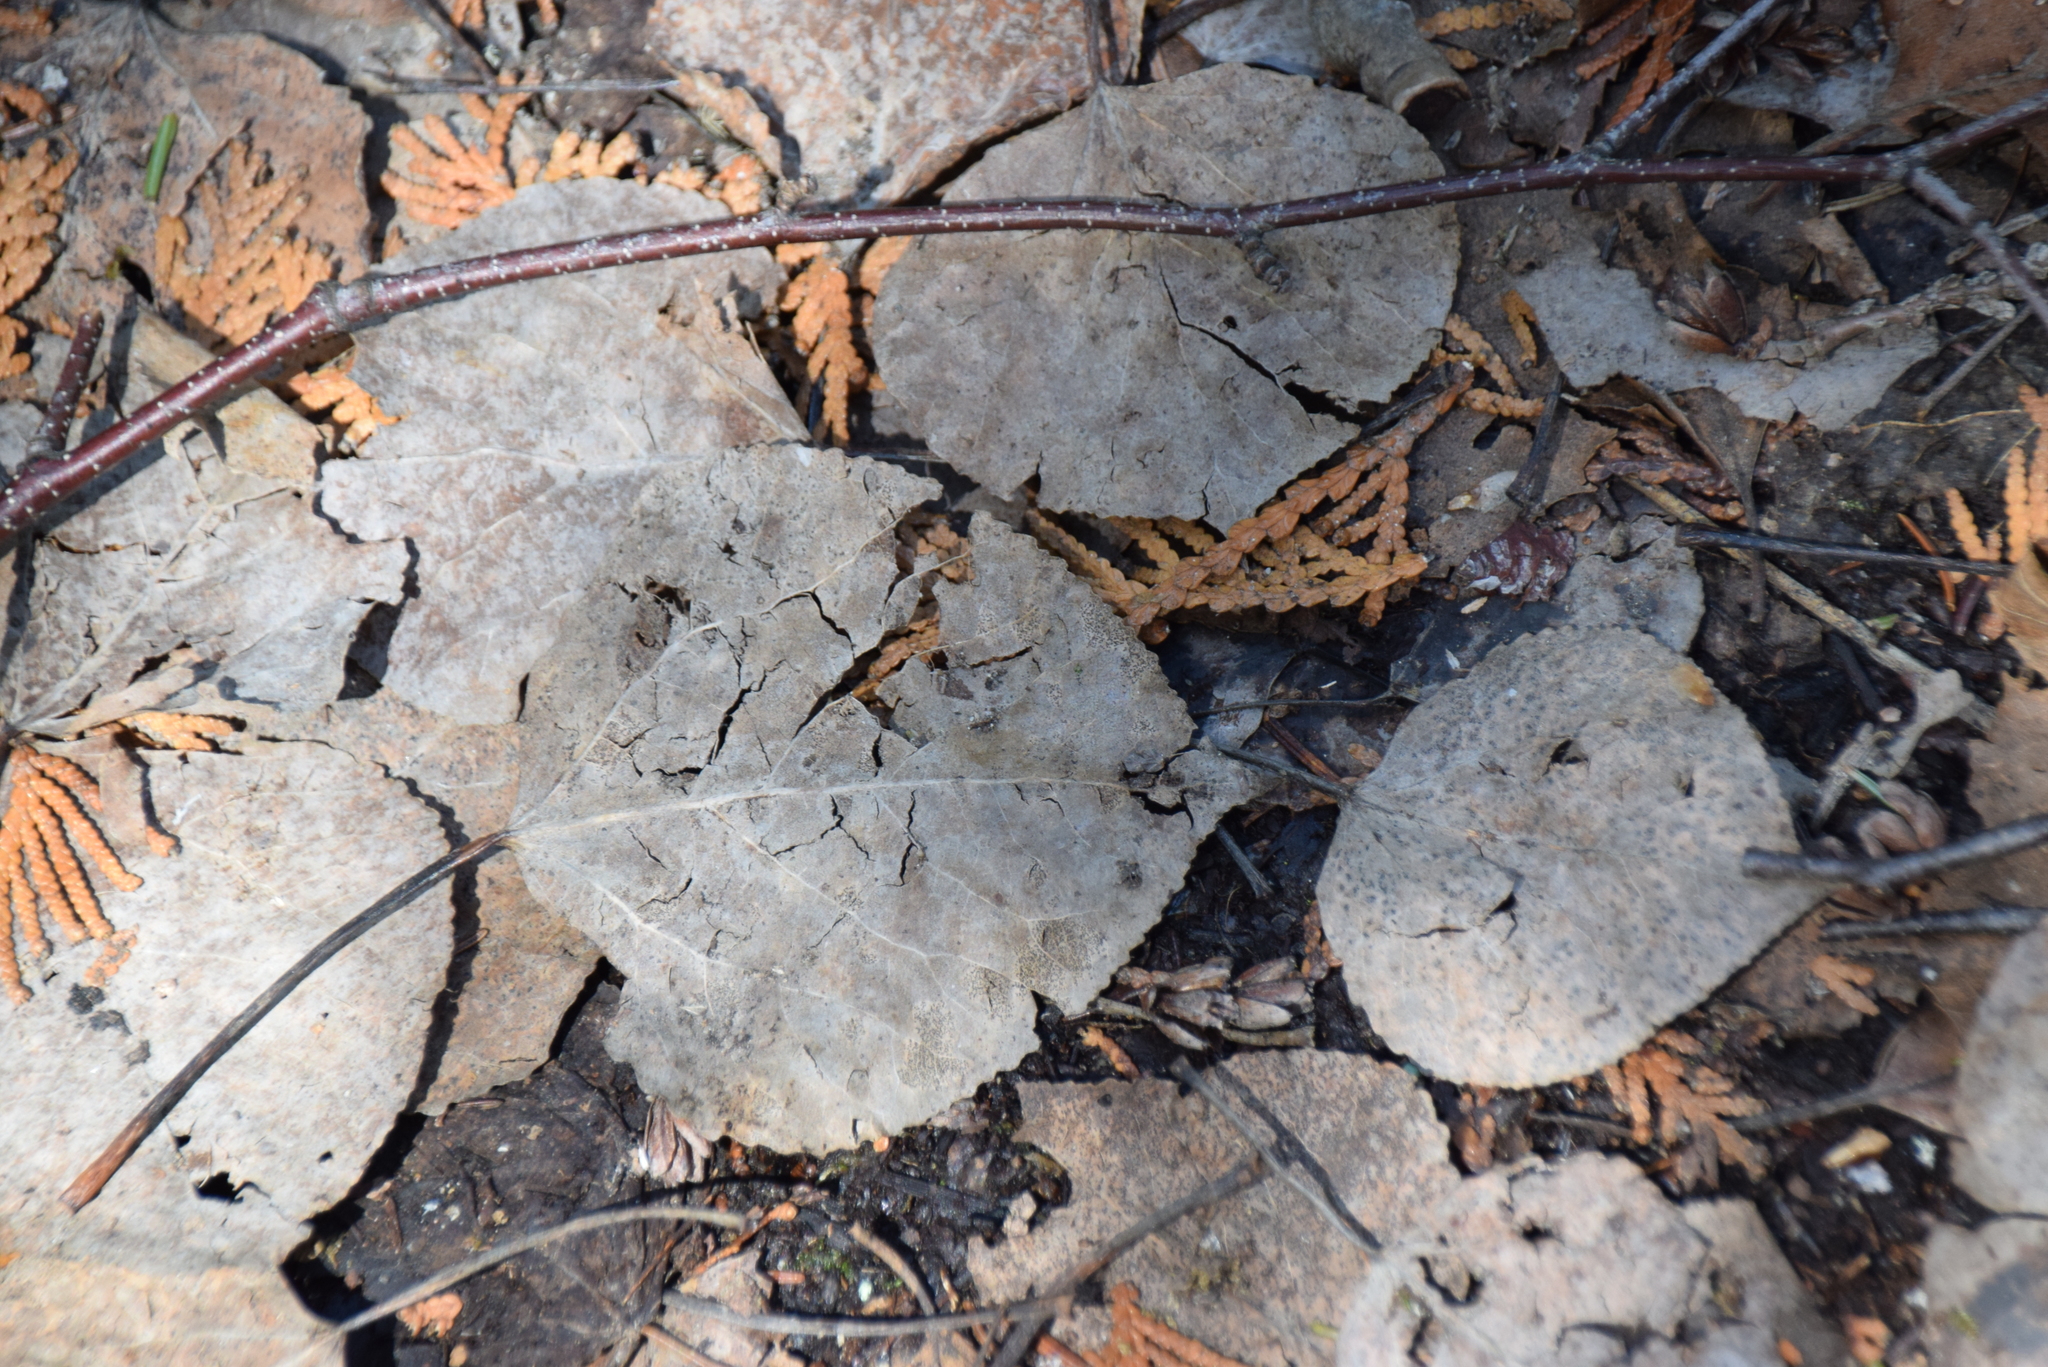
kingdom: Plantae
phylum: Tracheophyta
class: Magnoliopsida
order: Malpighiales
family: Salicaceae
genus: Populus
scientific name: Populus tremuloides
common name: Quaking aspen
